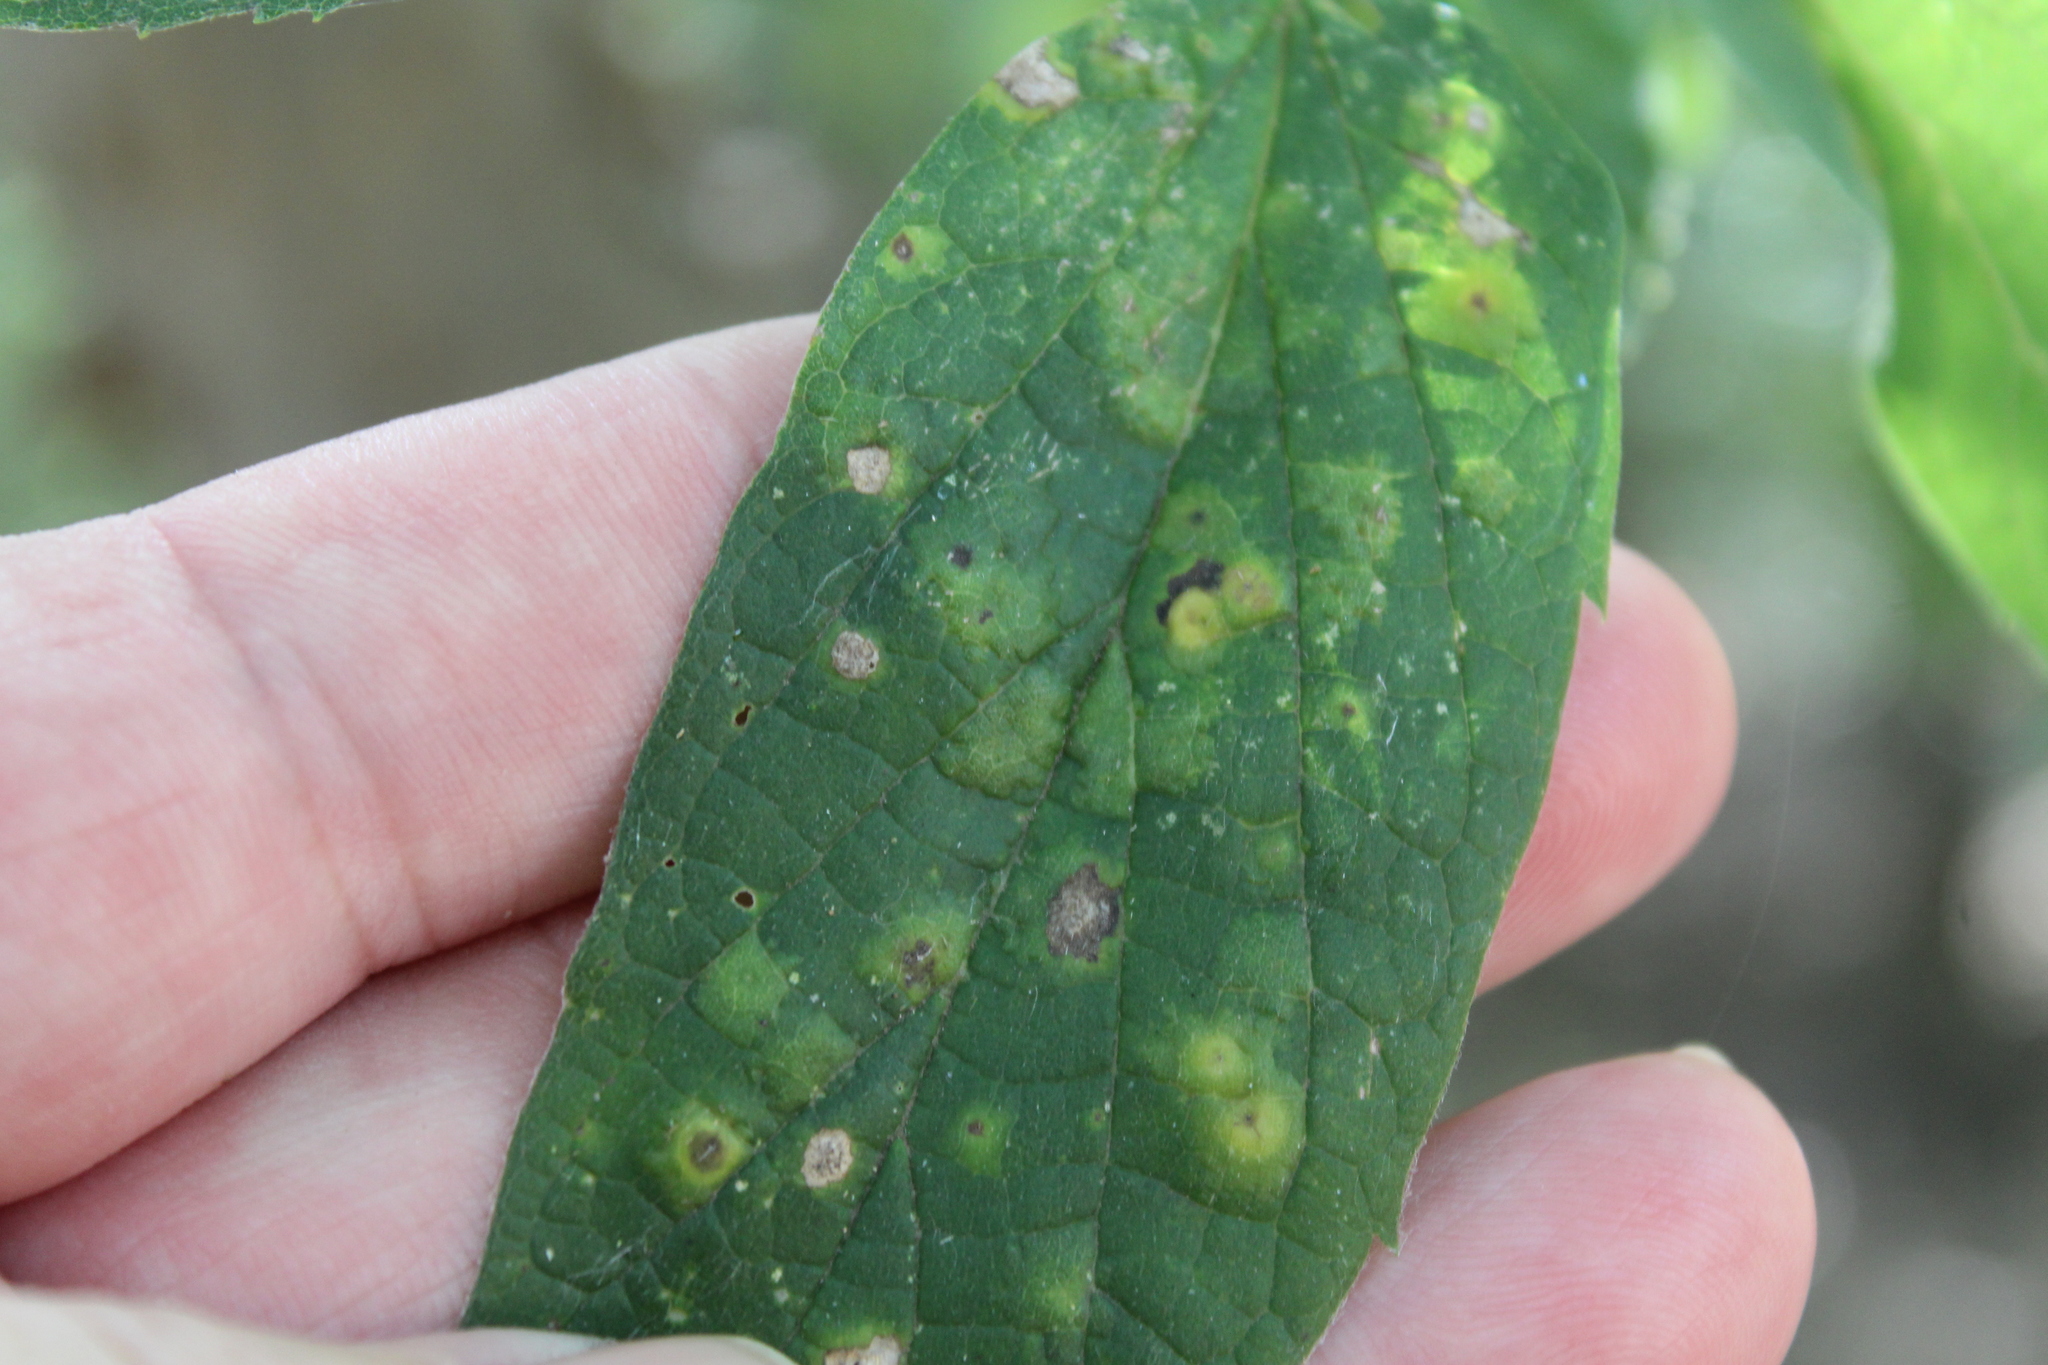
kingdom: Animalia
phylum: Arthropoda
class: Insecta
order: Hemiptera
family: Aphalaridae
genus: Pachypsylla
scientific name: Pachypsylla celtidisvesicula
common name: Hackberry blister gall psyllid
